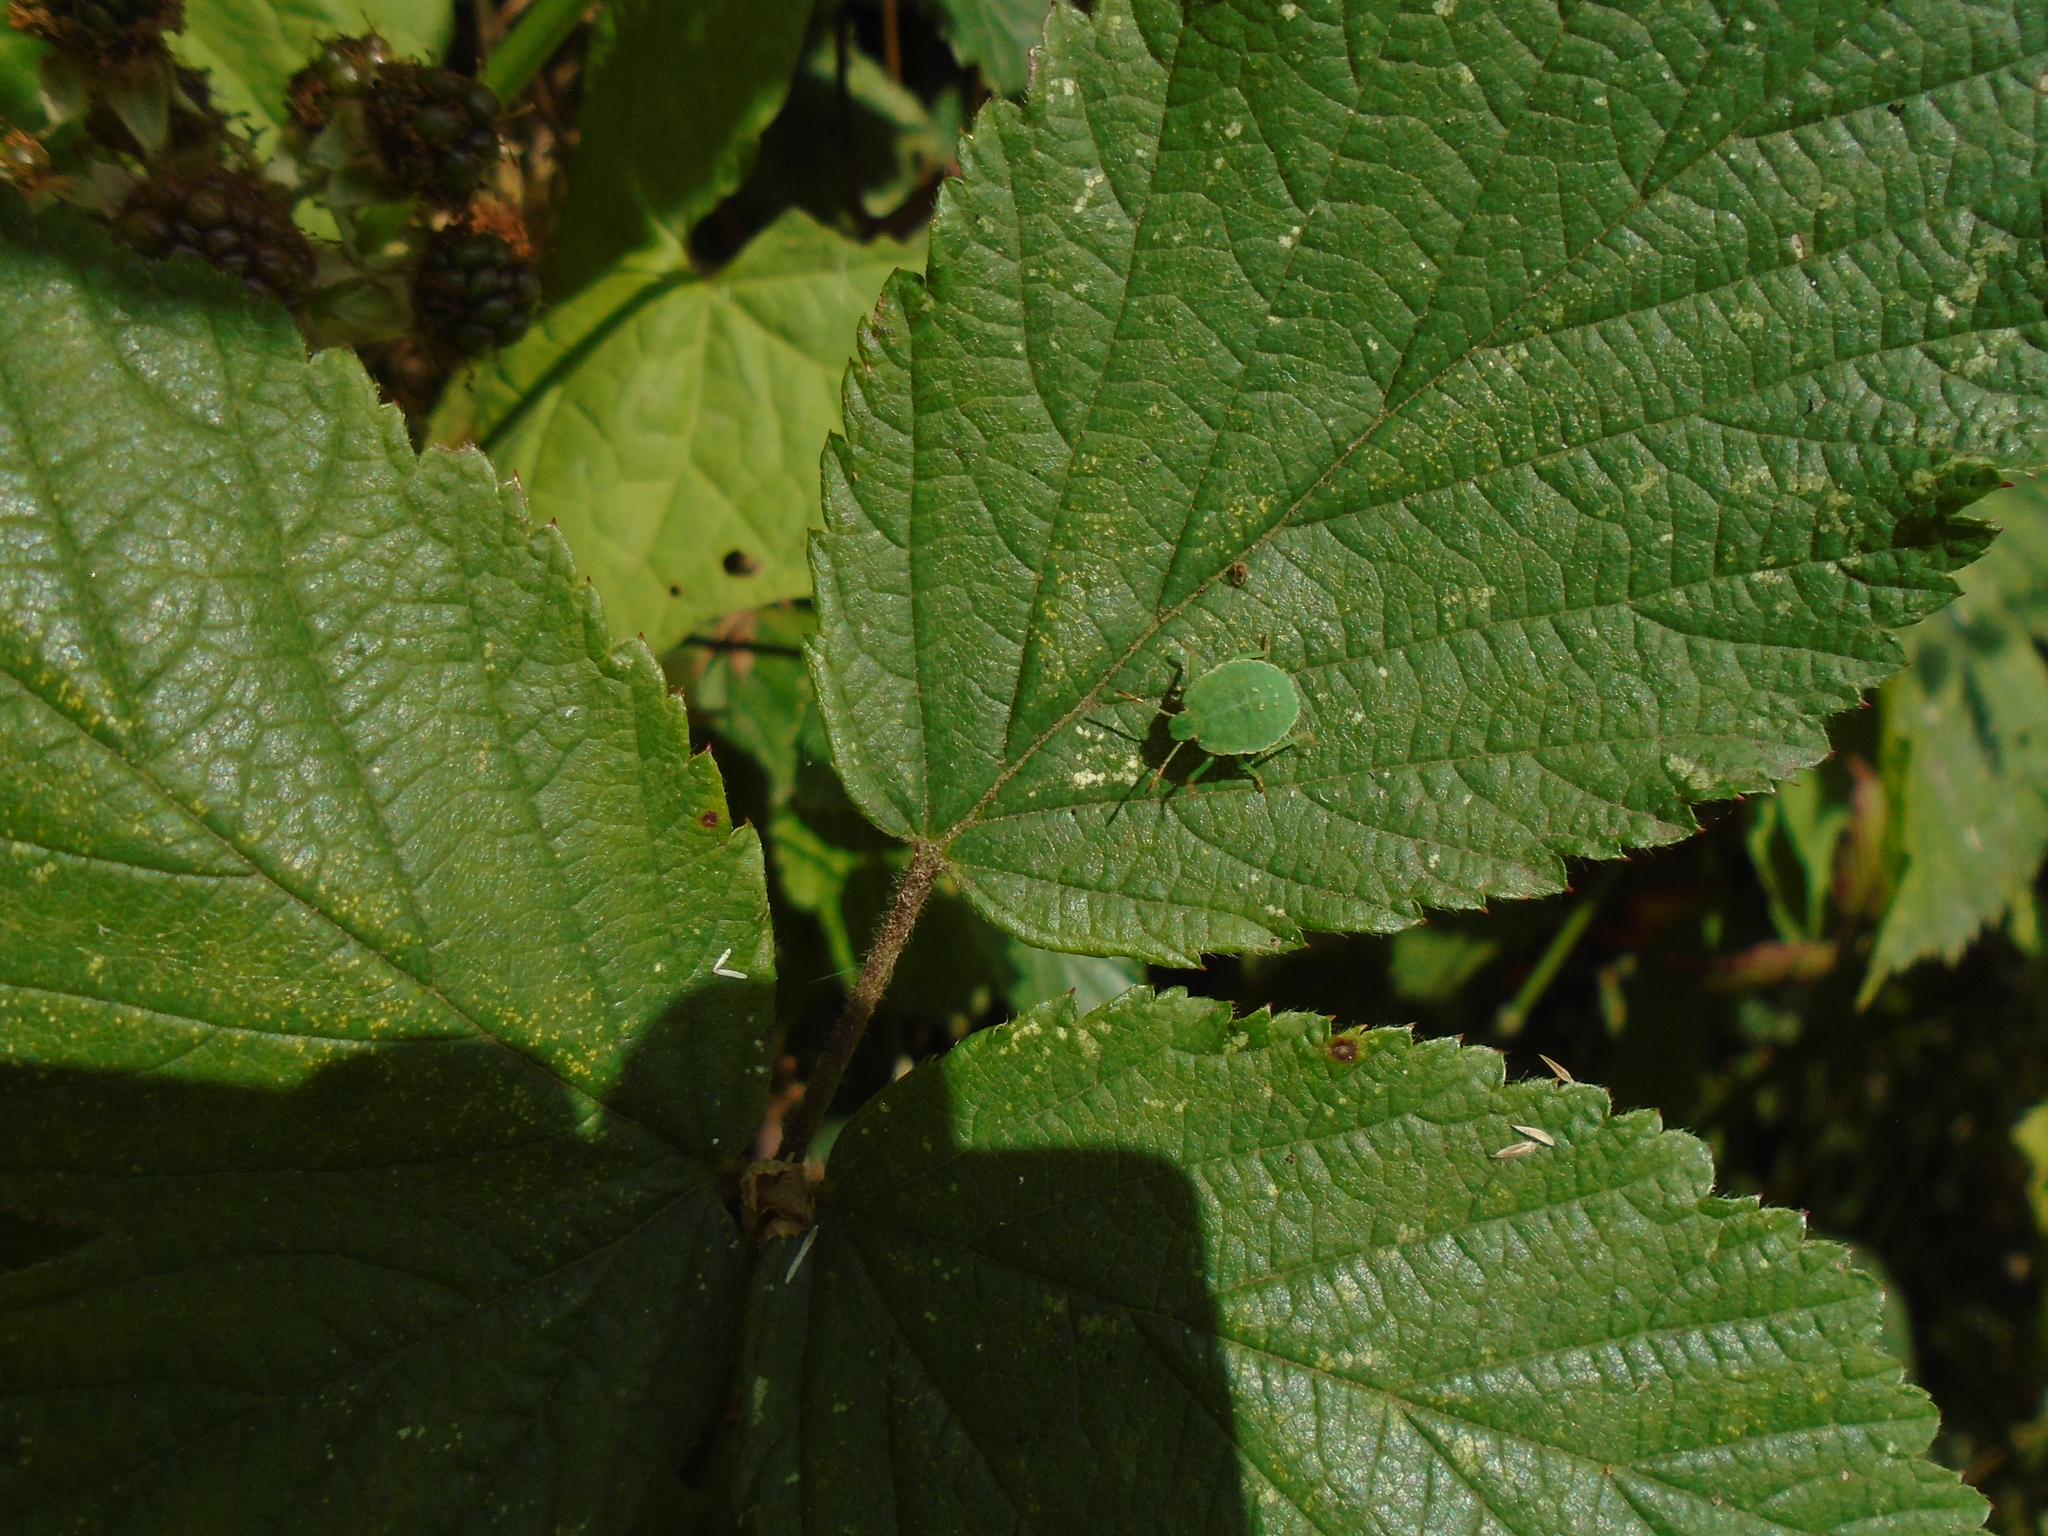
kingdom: Animalia
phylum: Arthropoda
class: Insecta
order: Hemiptera
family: Pentatomidae
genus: Palomena
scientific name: Palomena prasina
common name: Green shieldbug
